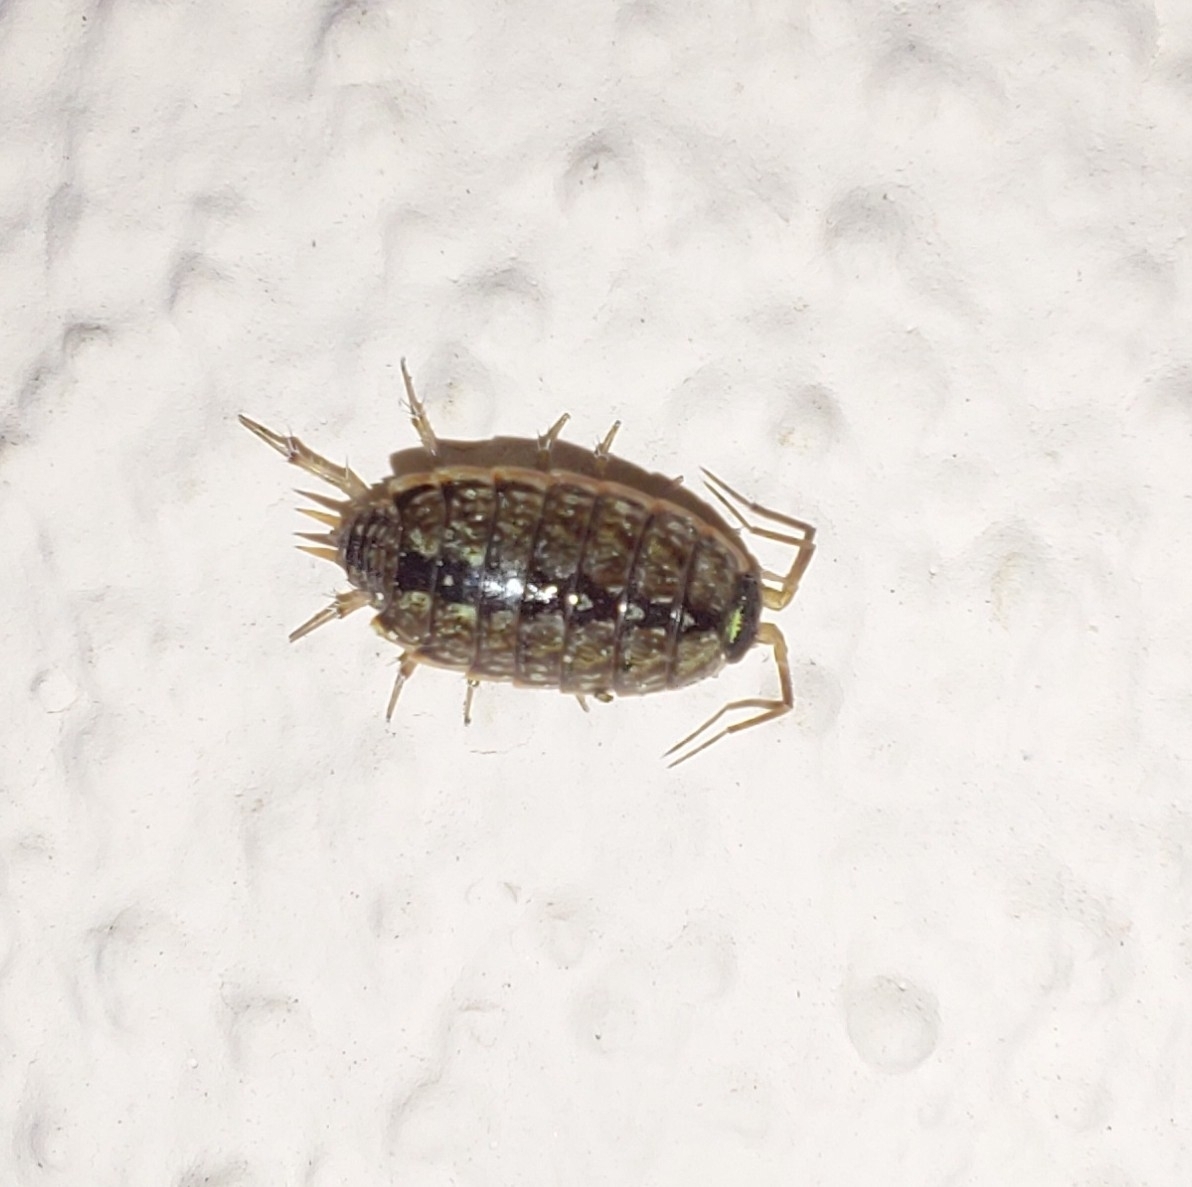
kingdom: Animalia
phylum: Arthropoda
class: Malacostraca
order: Isopoda
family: Philosciidae
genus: Philoscia
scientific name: Philoscia muscorum
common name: Common striped woodlouse
